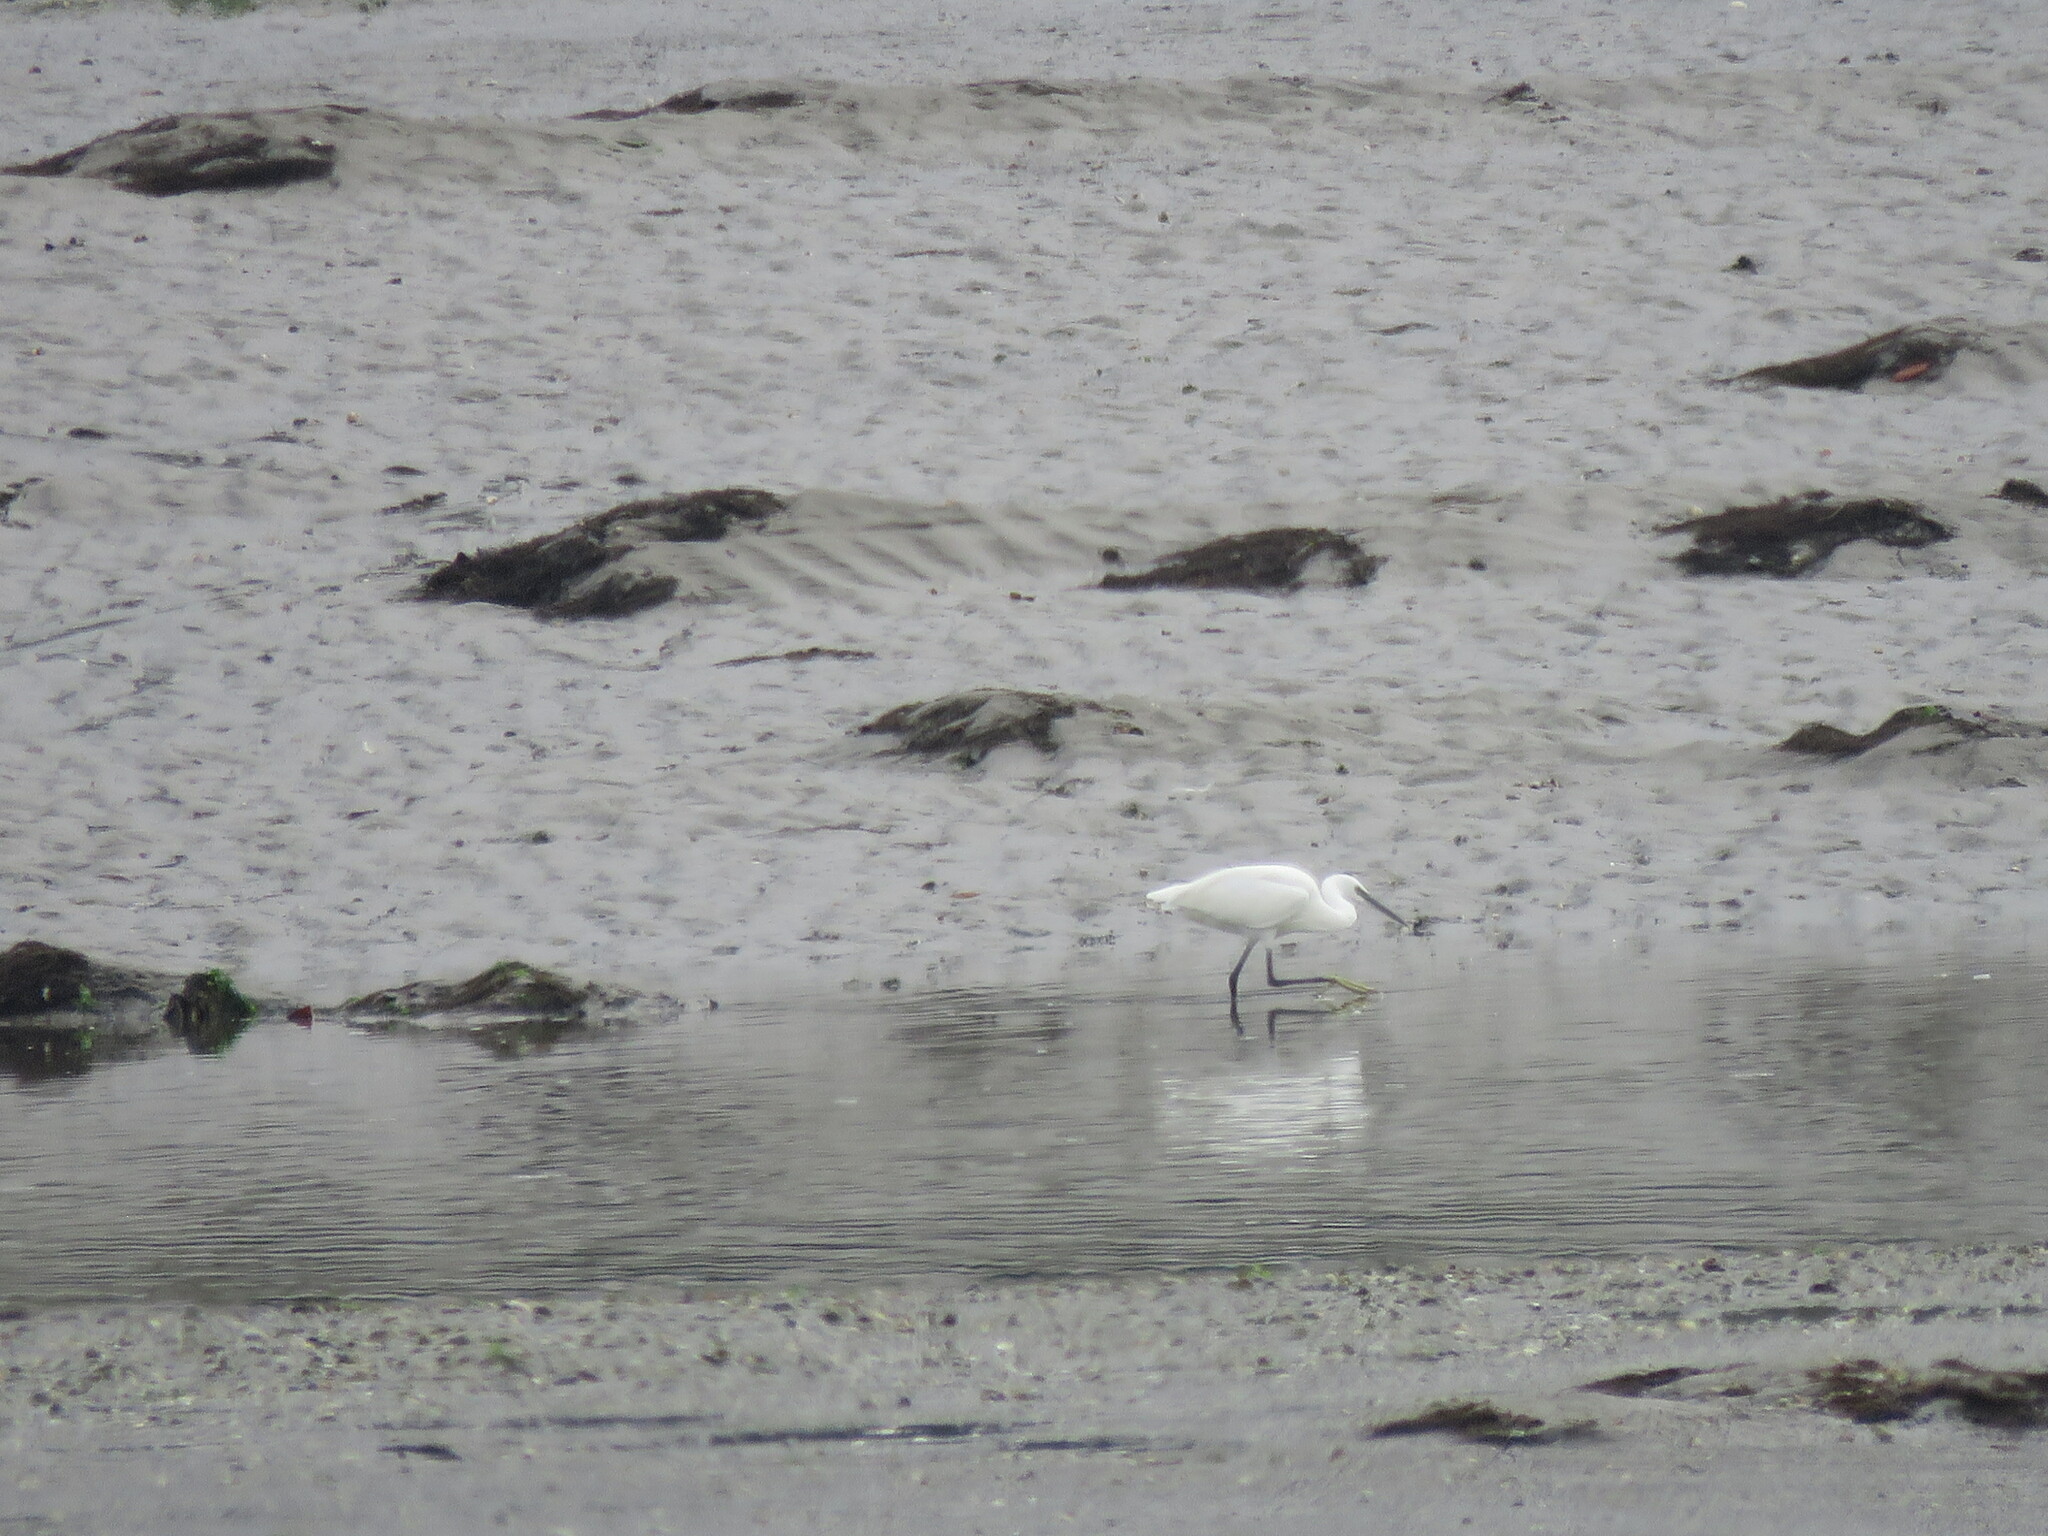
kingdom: Animalia
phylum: Chordata
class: Aves
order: Pelecaniformes
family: Ardeidae
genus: Egretta
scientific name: Egretta garzetta
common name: Little egret
